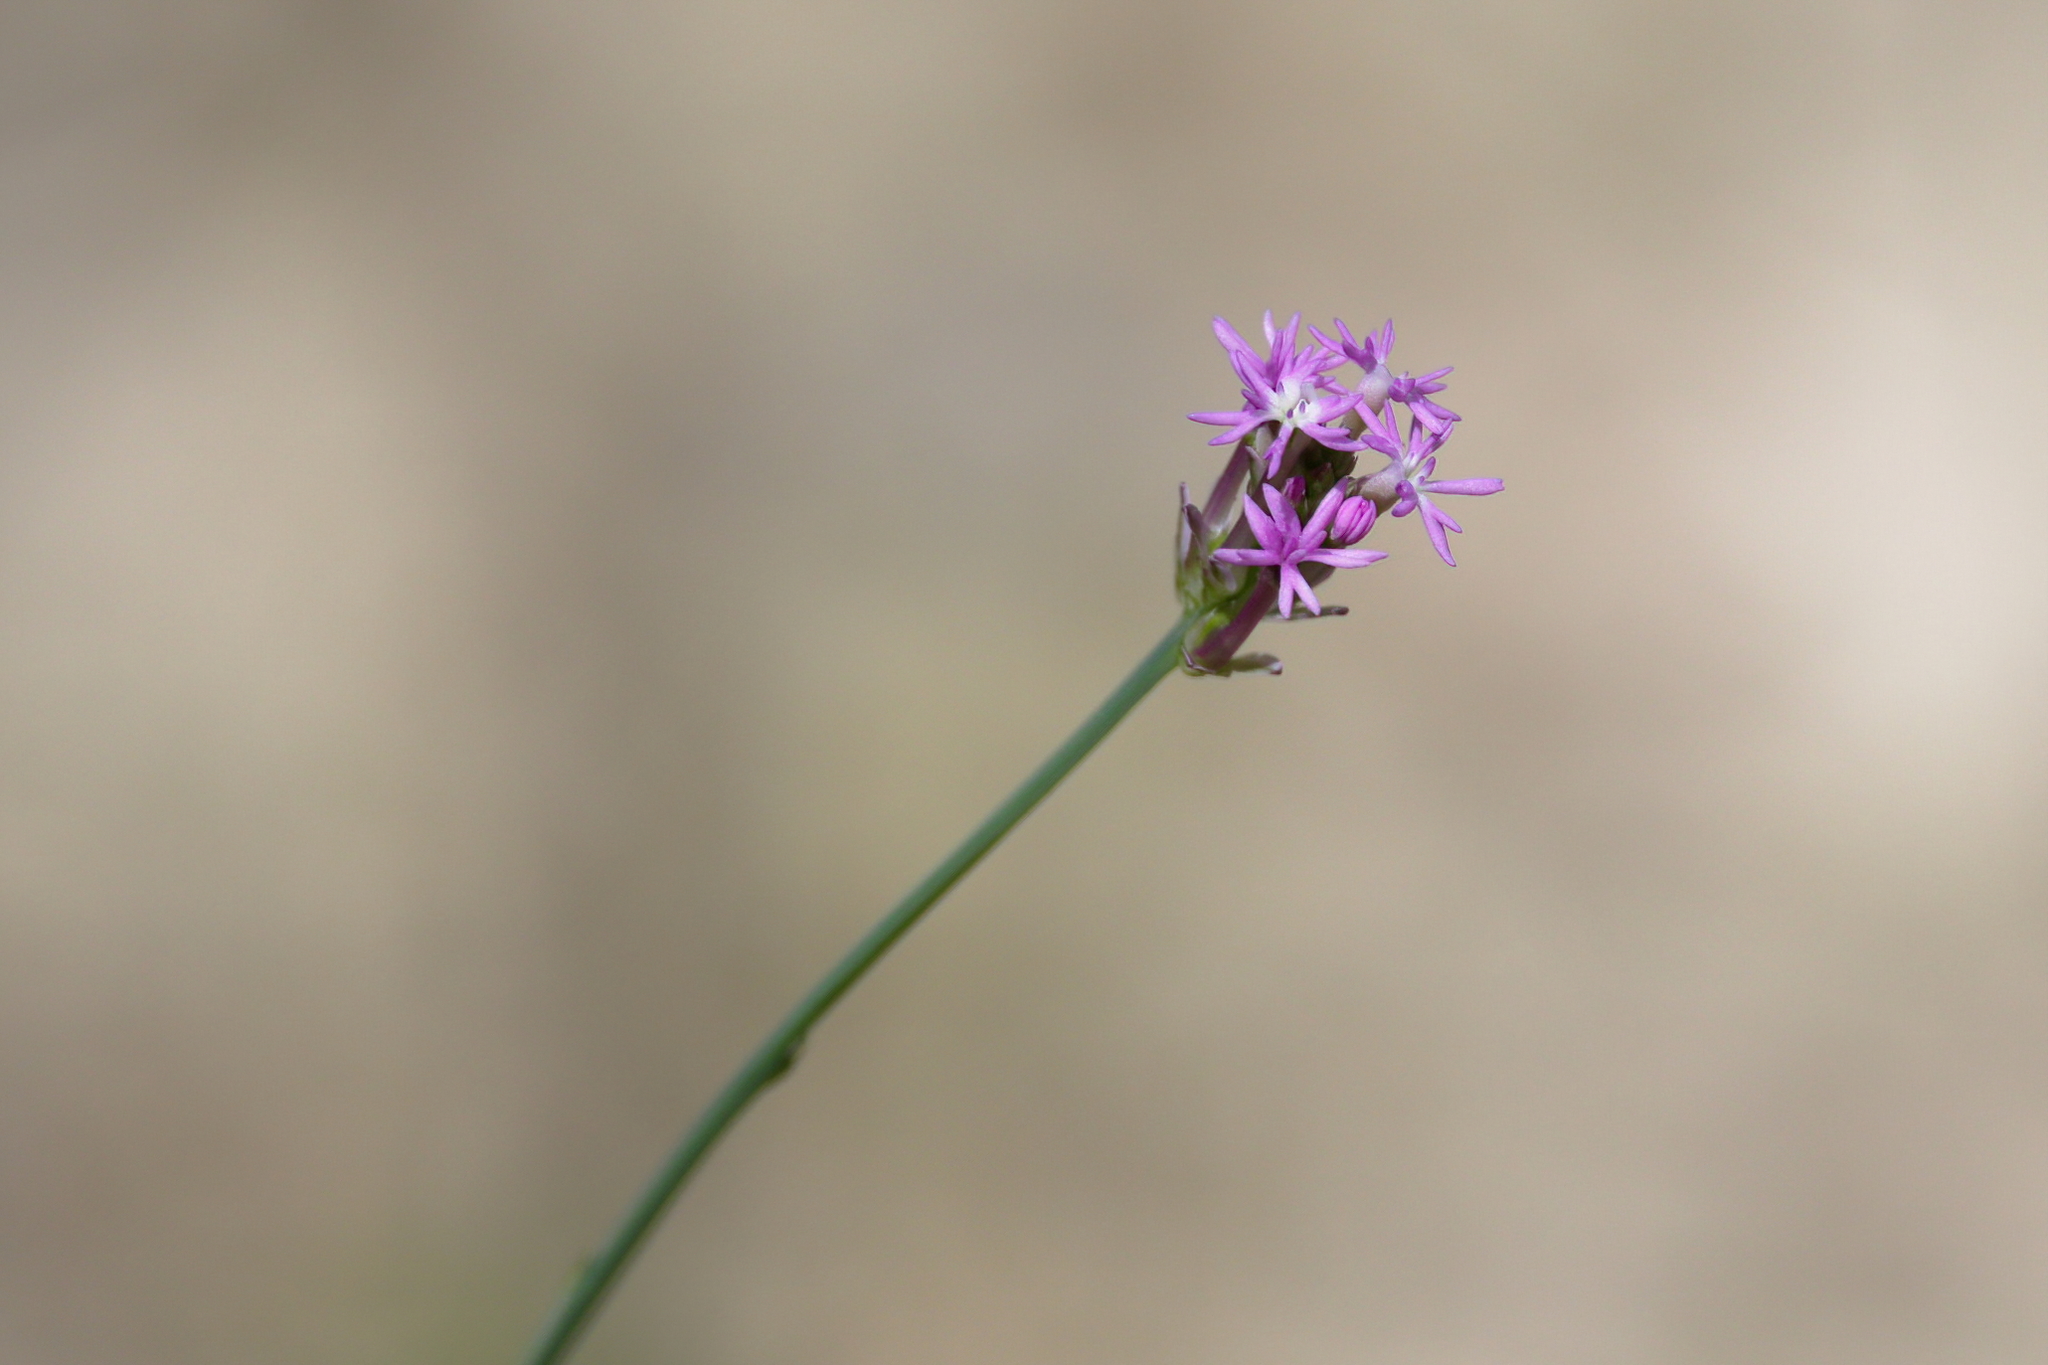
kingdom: Plantae
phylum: Tracheophyta
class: Magnoliopsida
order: Fabales
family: Polygalaceae
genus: Polygala
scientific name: Polygala incarnata
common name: Pink milkwort
